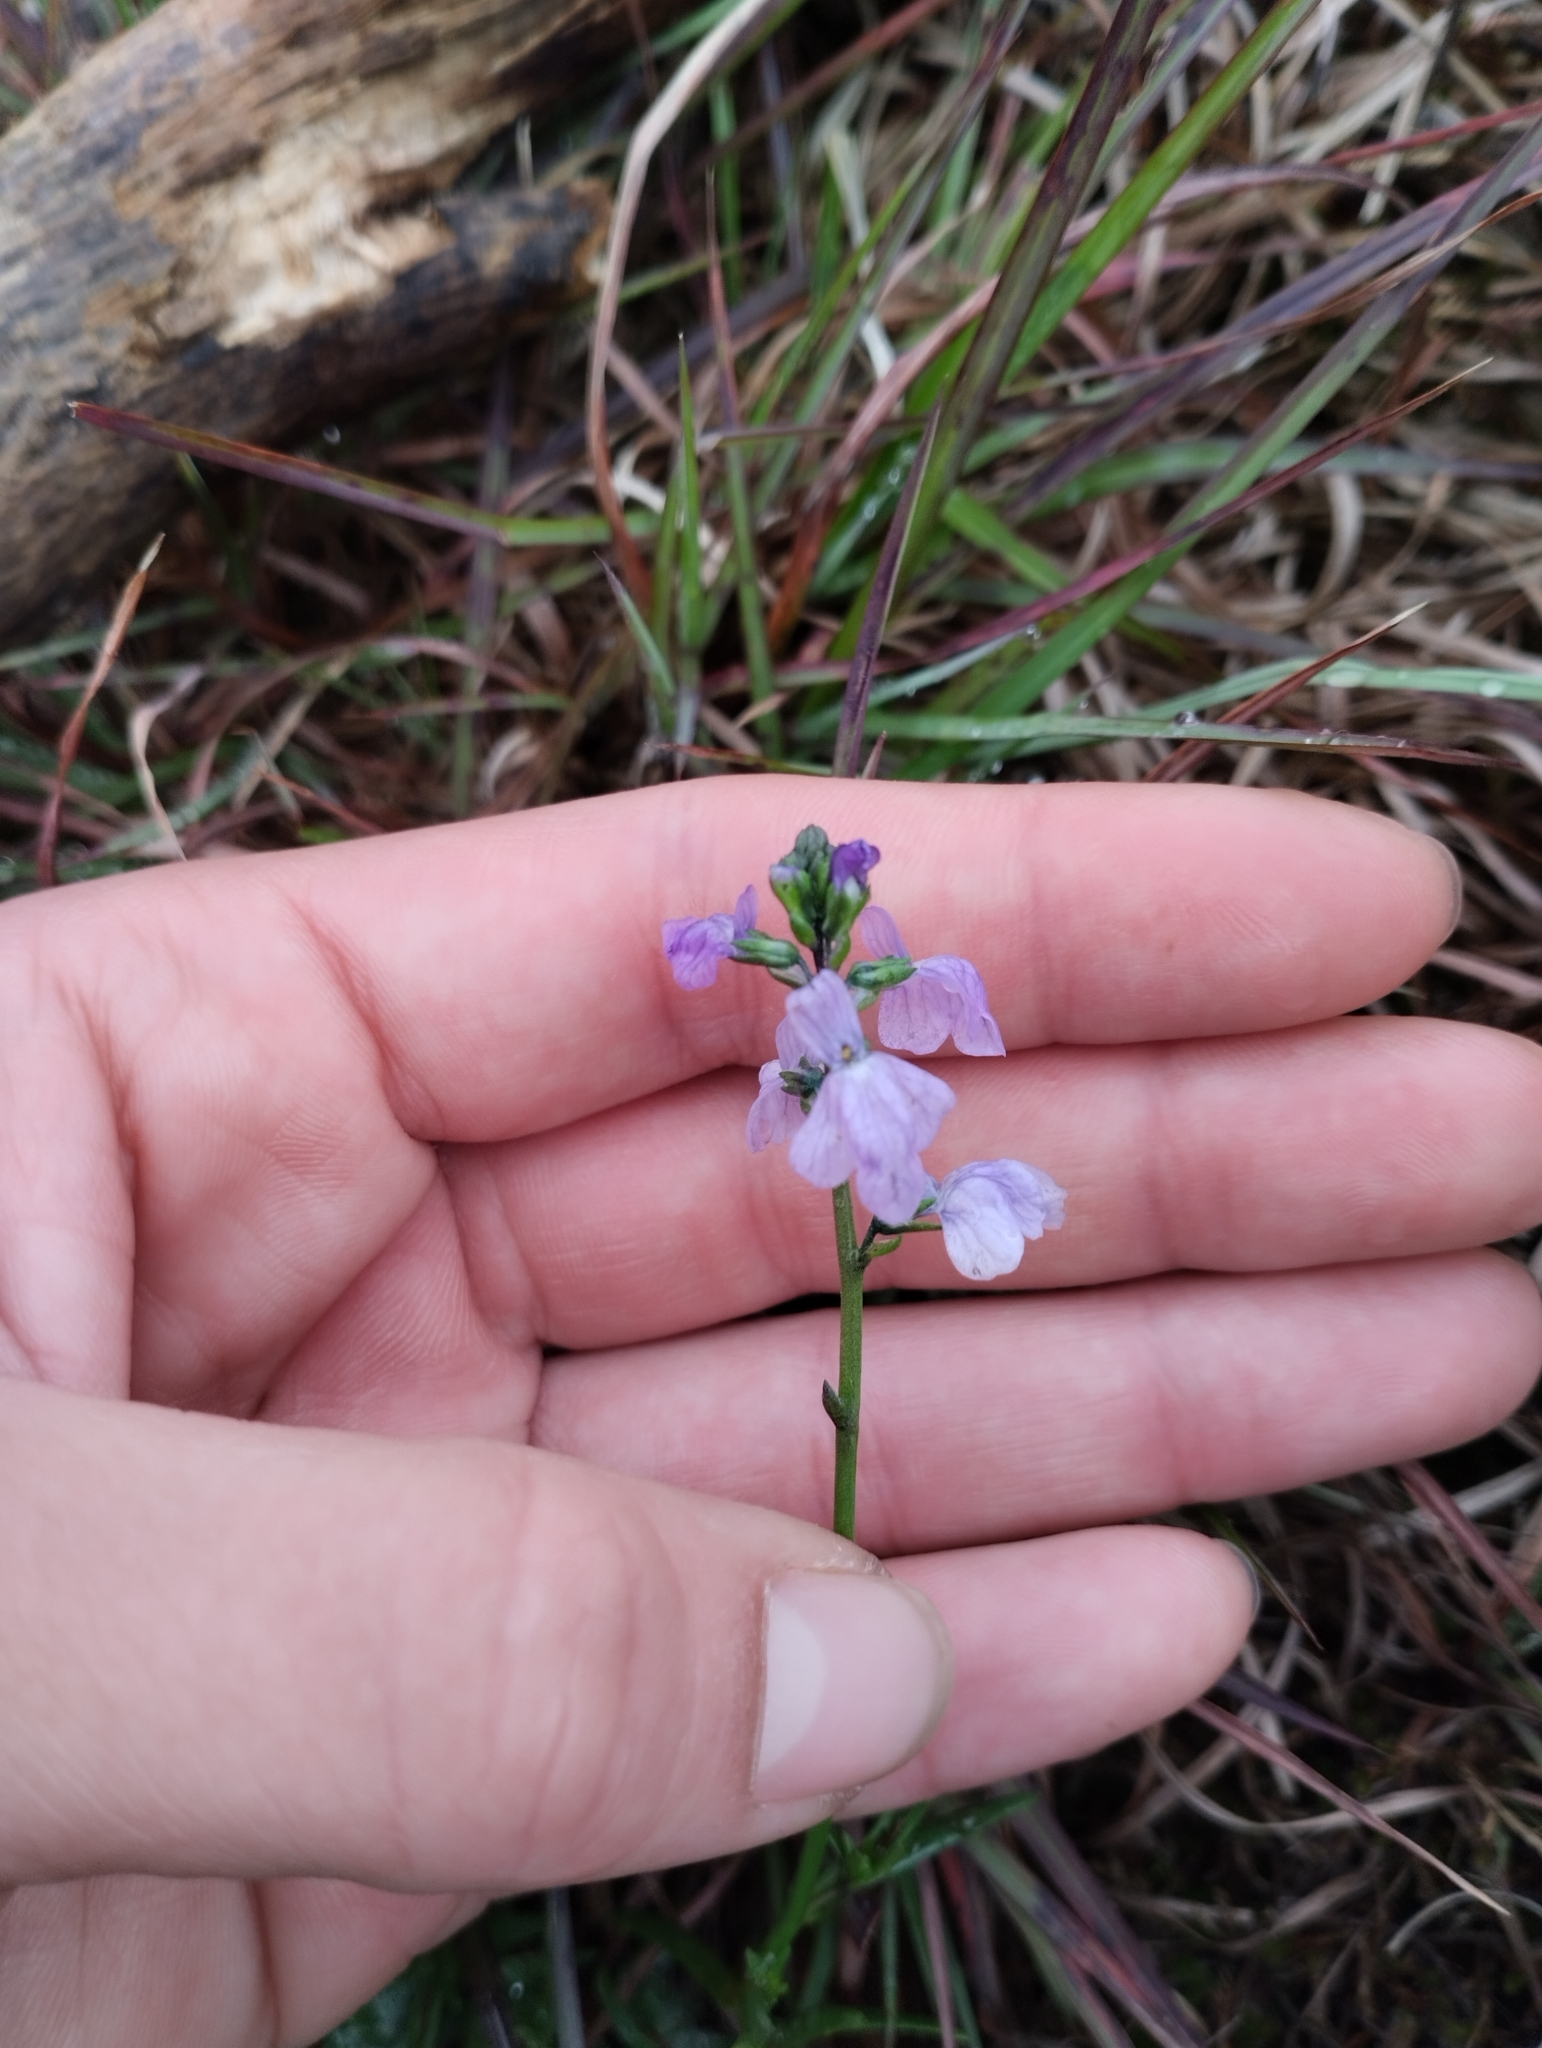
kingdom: Plantae
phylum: Tracheophyta
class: Magnoliopsida
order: Lamiales
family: Plantaginaceae
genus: Nuttallanthus
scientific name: Nuttallanthus texanus
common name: Texas toadflax
